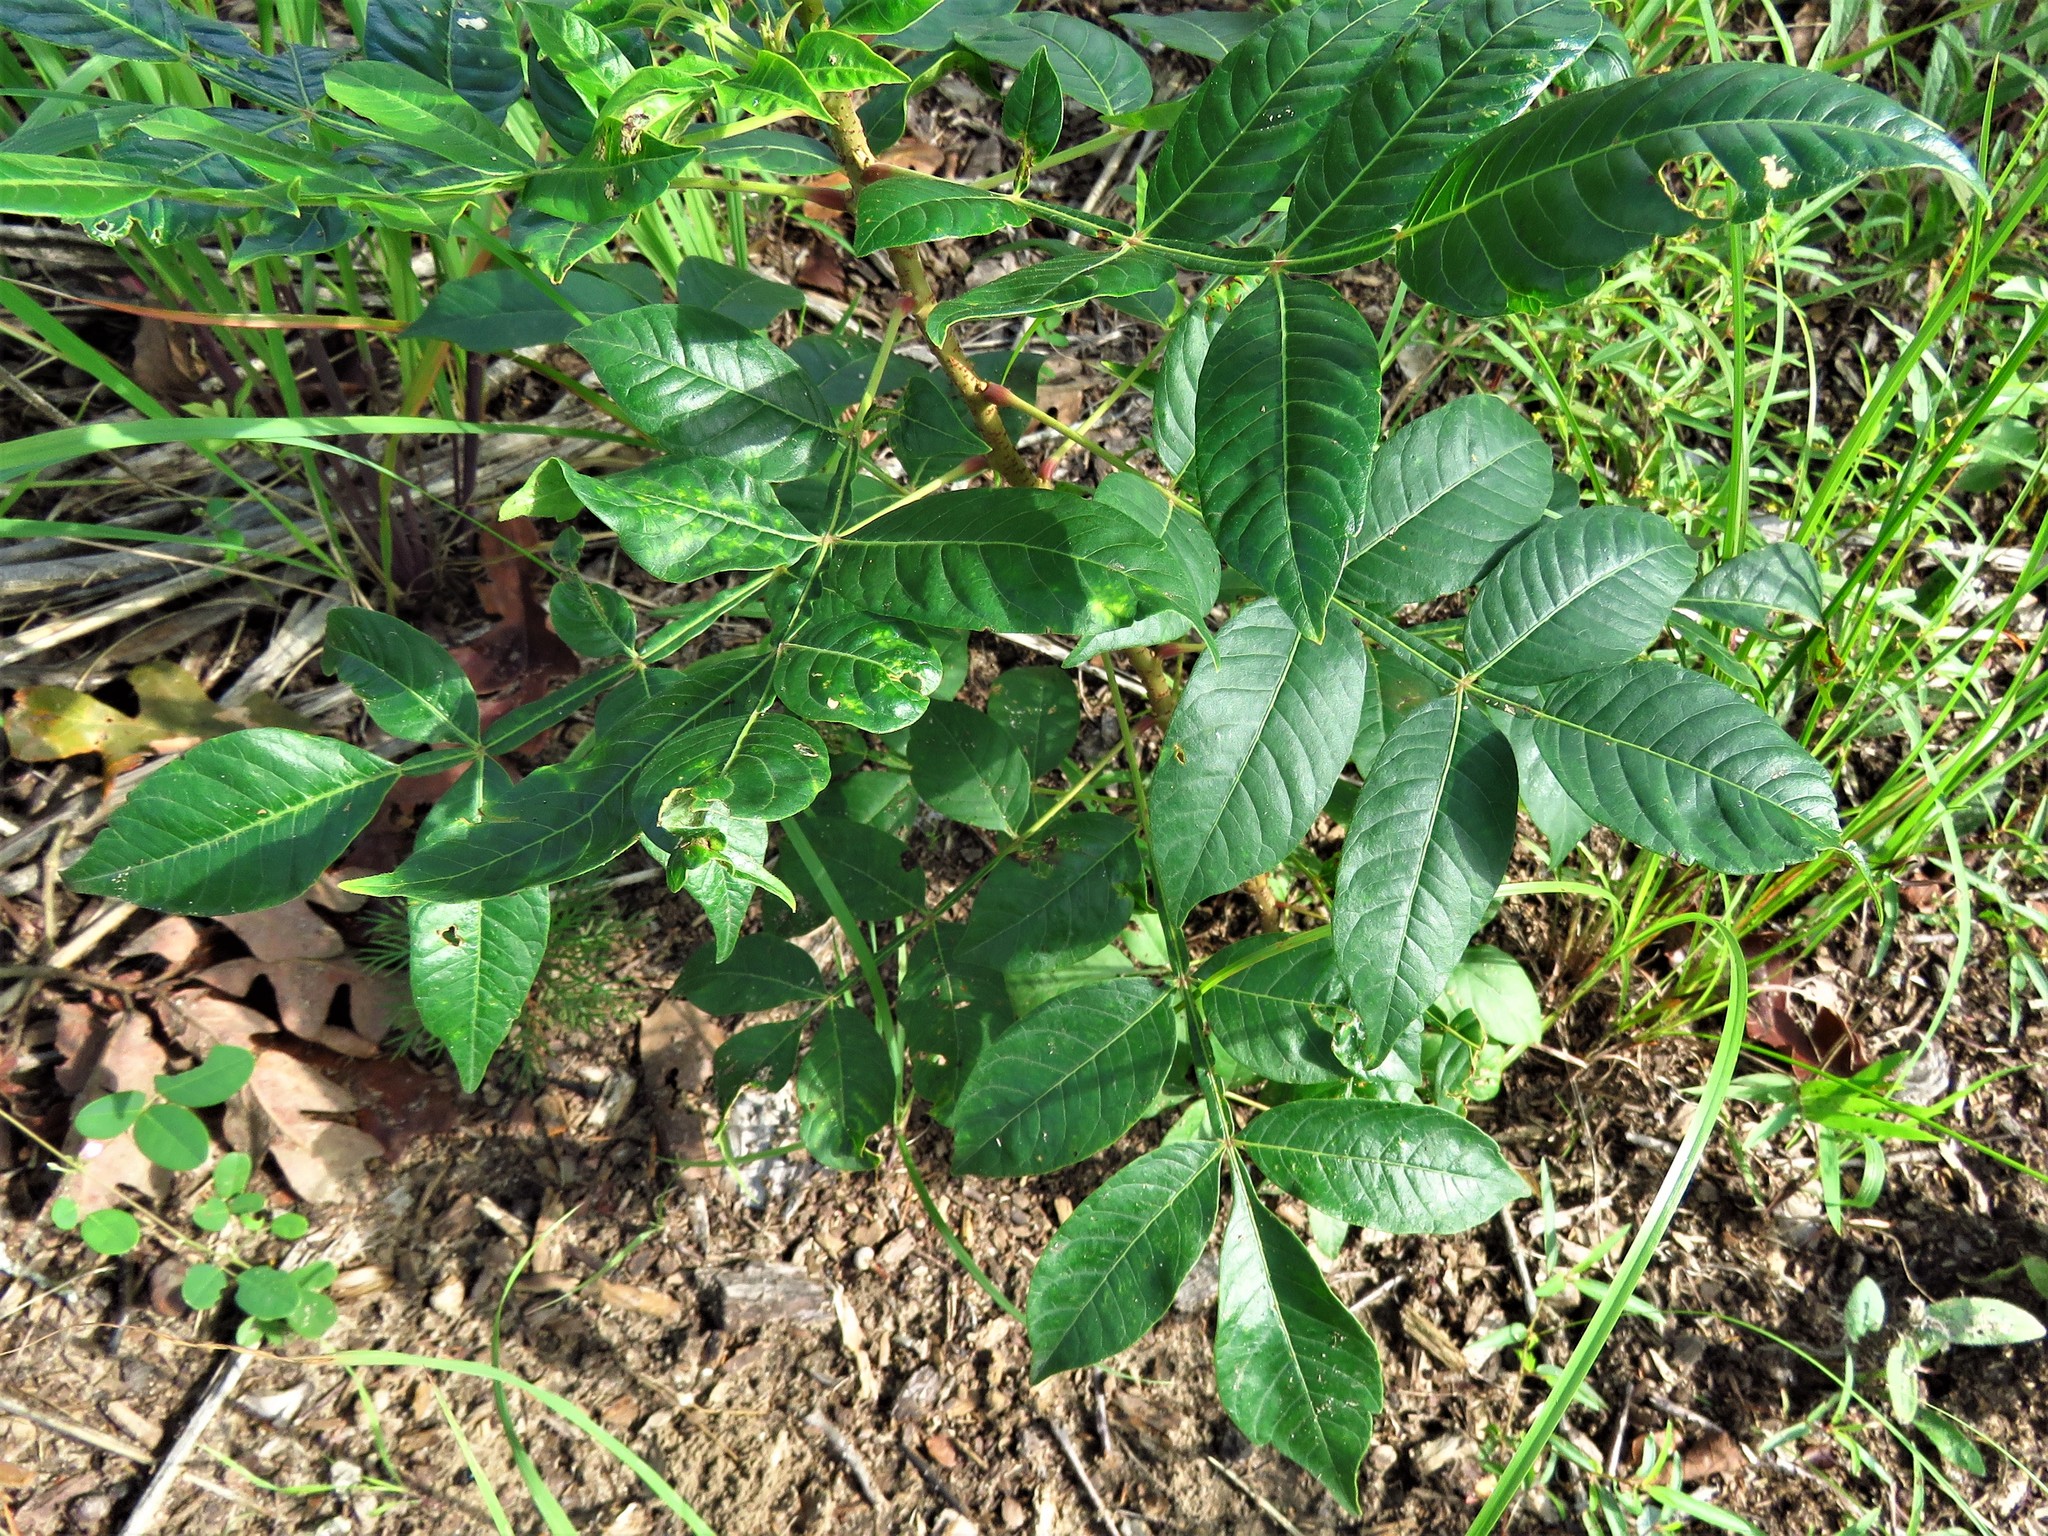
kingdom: Plantae
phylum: Tracheophyta
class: Magnoliopsida
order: Sapindales
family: Anacardiaceae
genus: Rhus
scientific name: Rhus copallina
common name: Shining sumac
